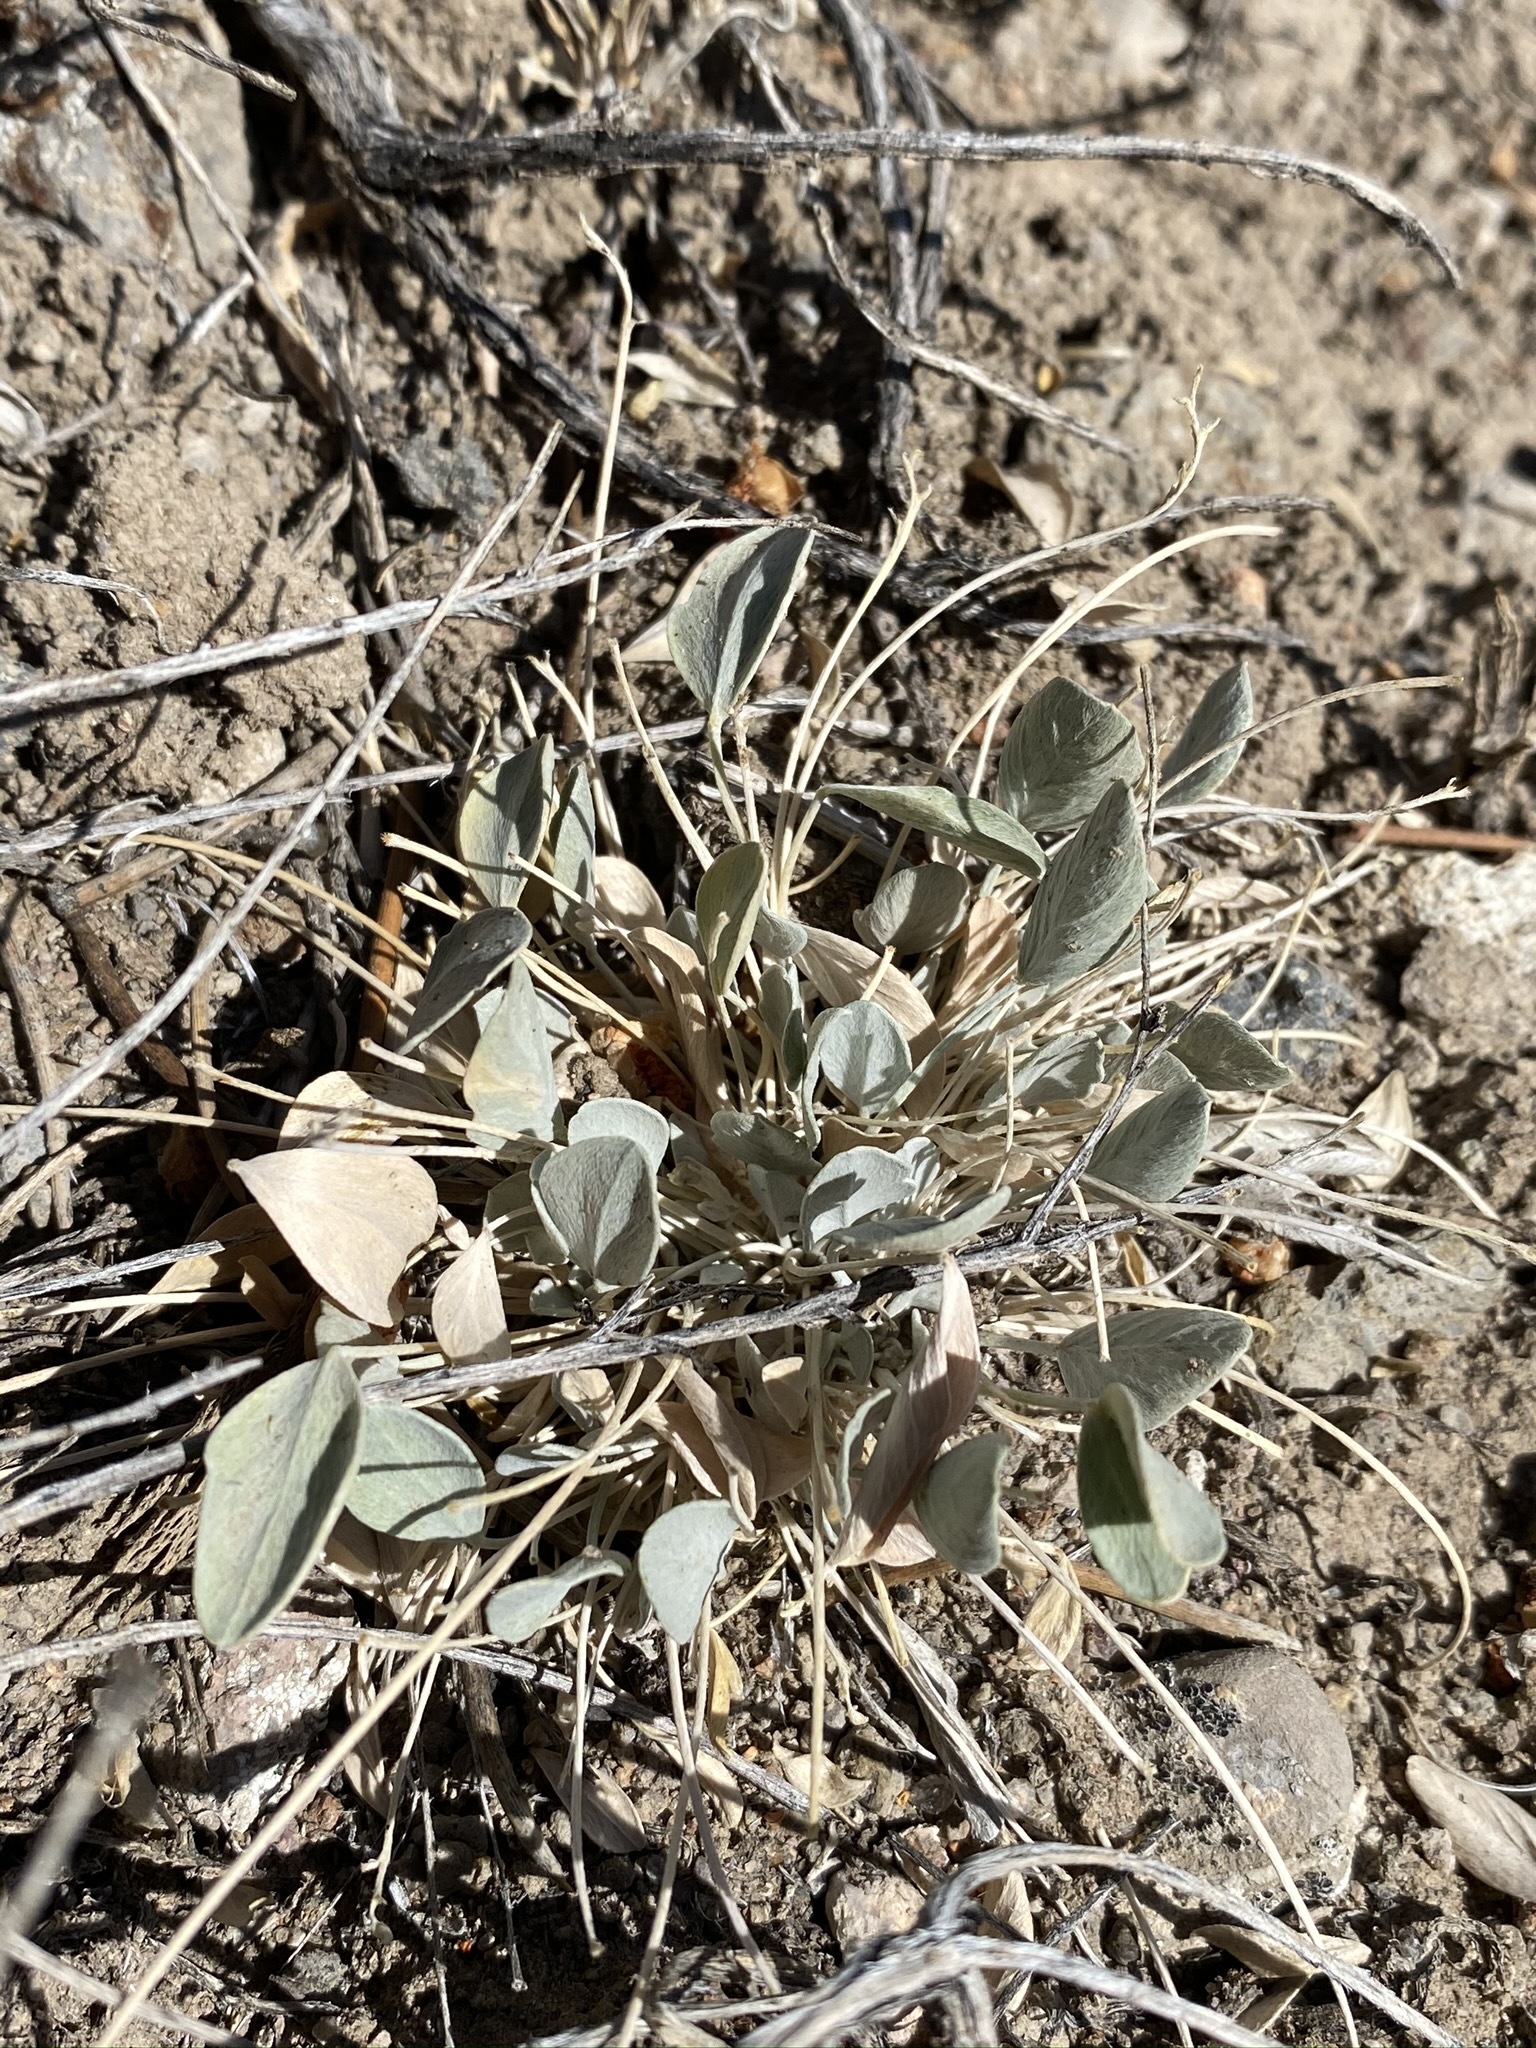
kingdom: Plantae
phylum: Tracheophyta
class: Magnoliopsida
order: Fabales
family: Fabaceae
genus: Astragalus
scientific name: Astragalus calycosus
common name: King's milkvetch
